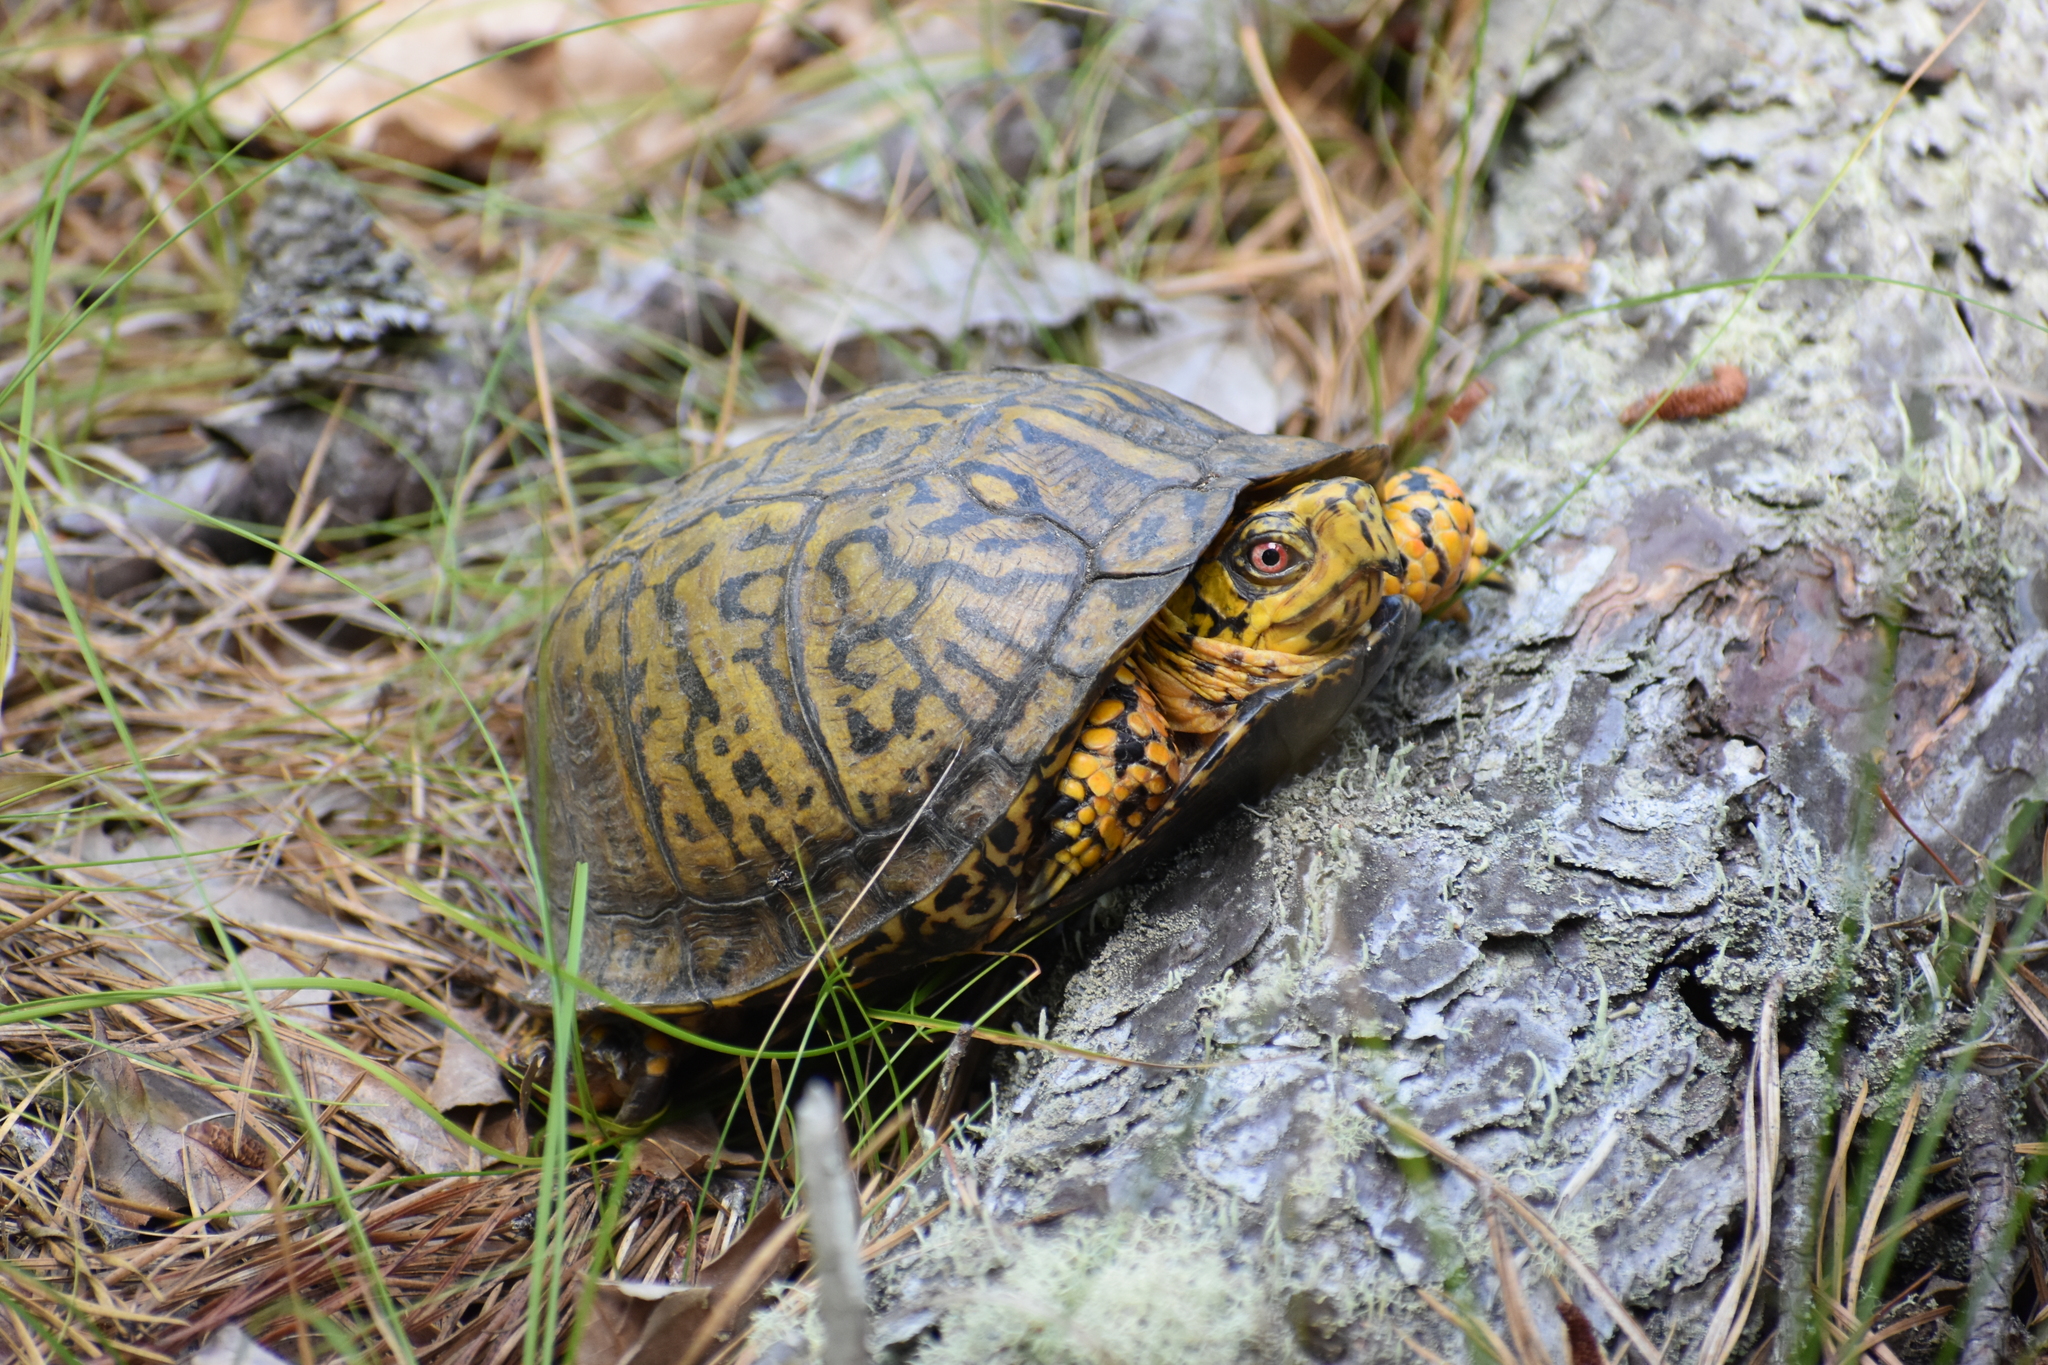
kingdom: Animalia
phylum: Chordata
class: Testudines
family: Emydidae
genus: Terrapene
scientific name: Terrapene carolina
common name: Common box turtle
